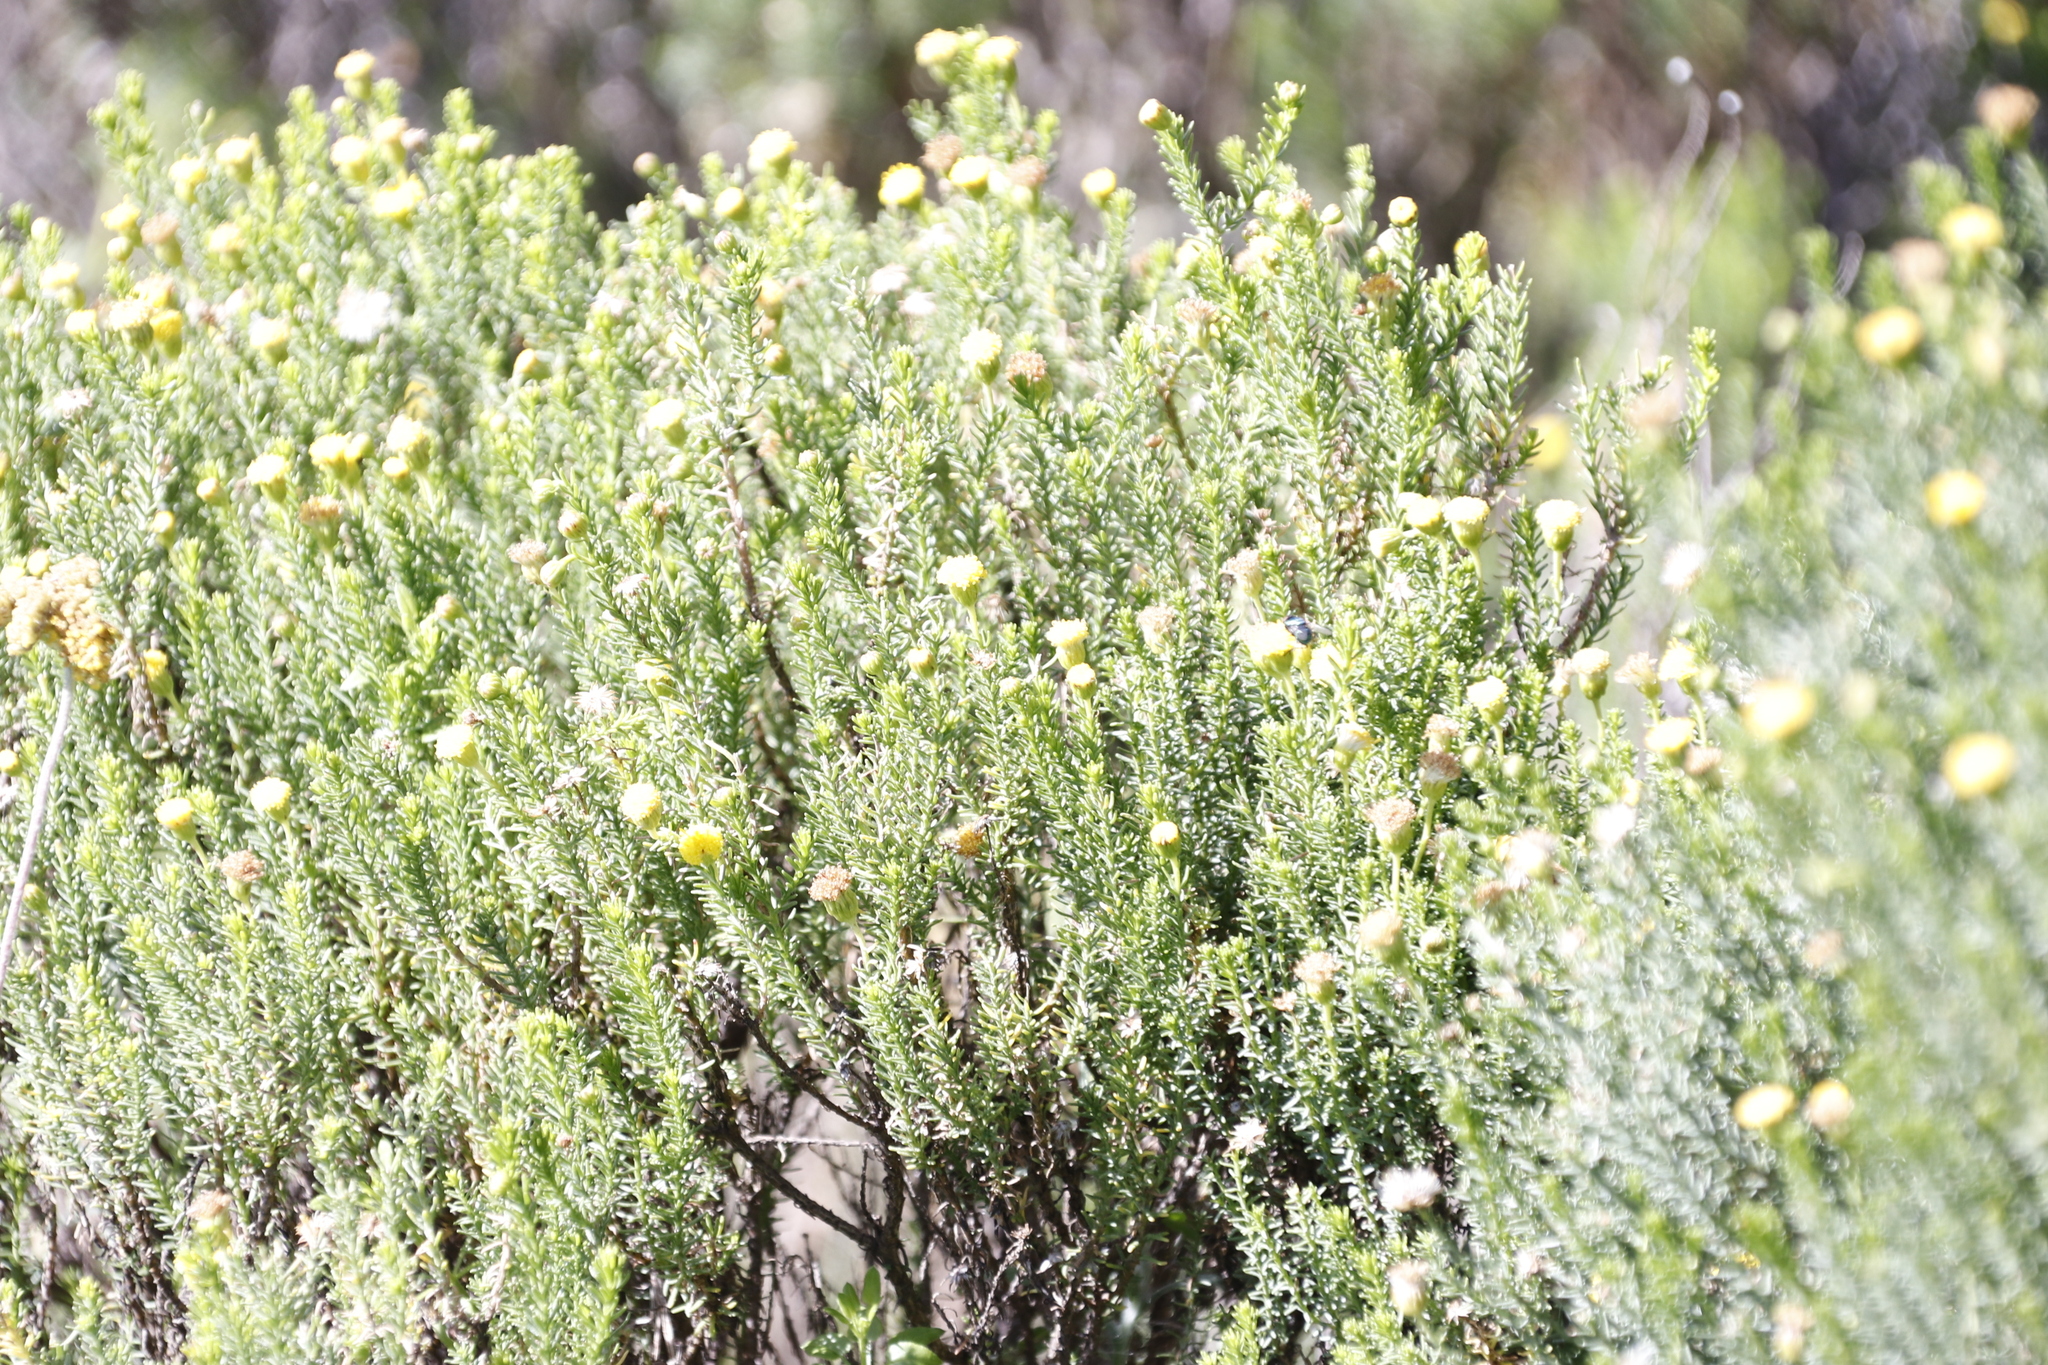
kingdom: Plantae
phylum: Tracheophyta
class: Magnoliopsida
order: Asterales
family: Asteraceae
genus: Chrysocoma
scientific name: Chrysocoma ciliata
